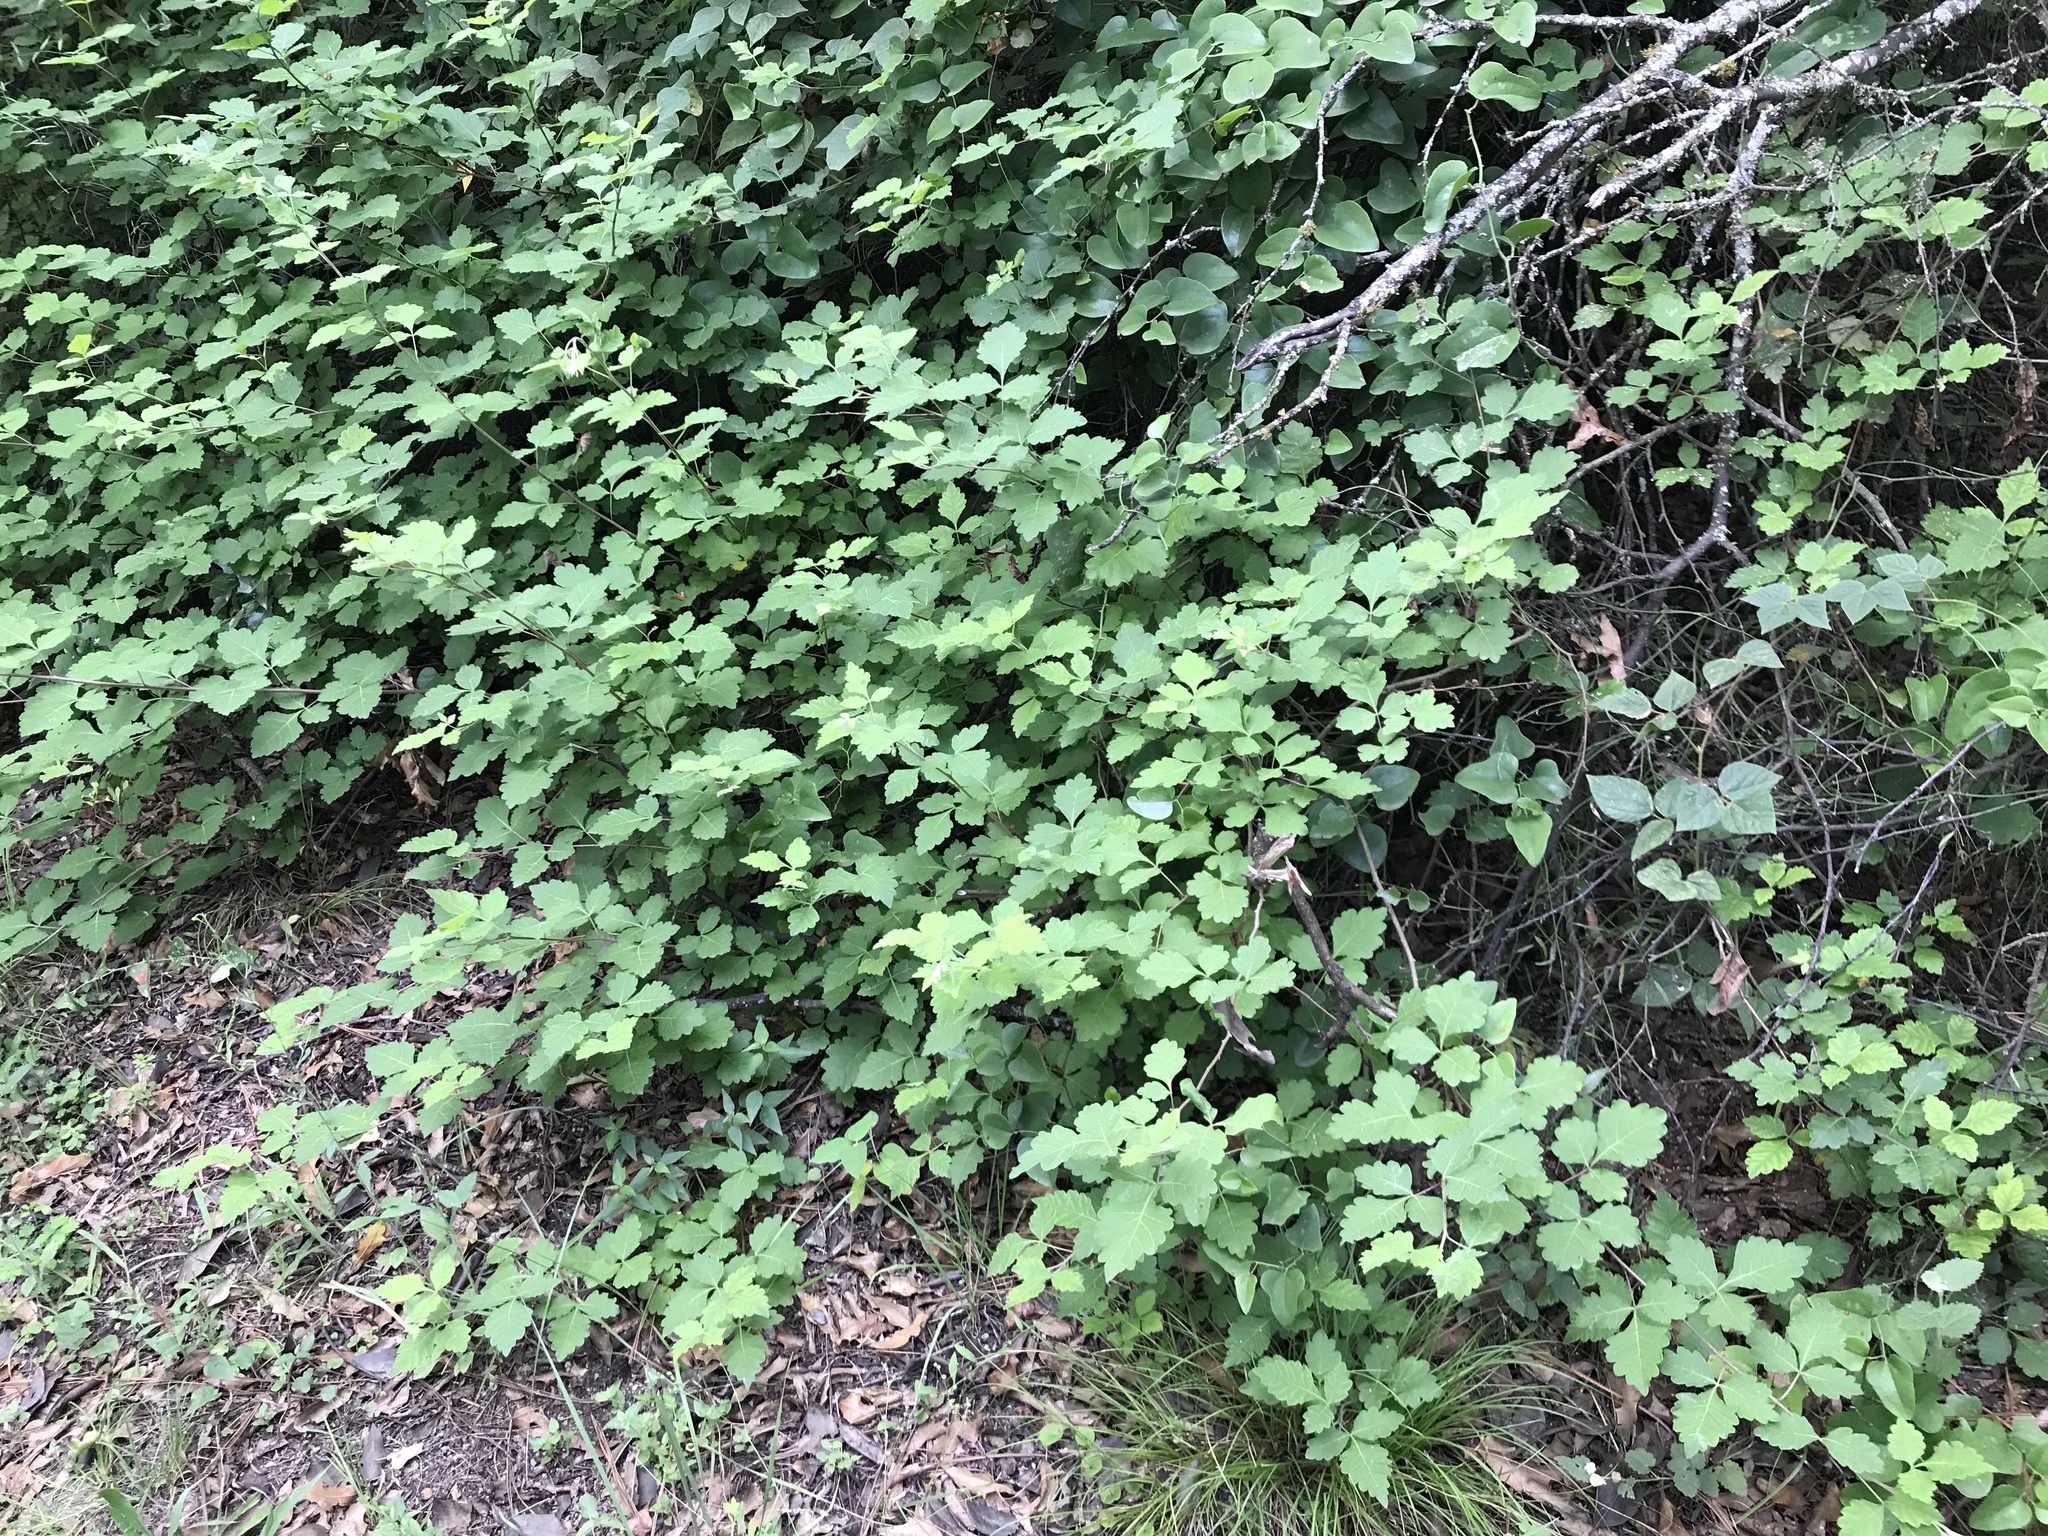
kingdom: Plantae
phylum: Tracheophyta
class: Magnoliopsida
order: Sapindales
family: Anacardiaceae
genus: Rhus
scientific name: Rhus aromatica
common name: Aromatic sumac
